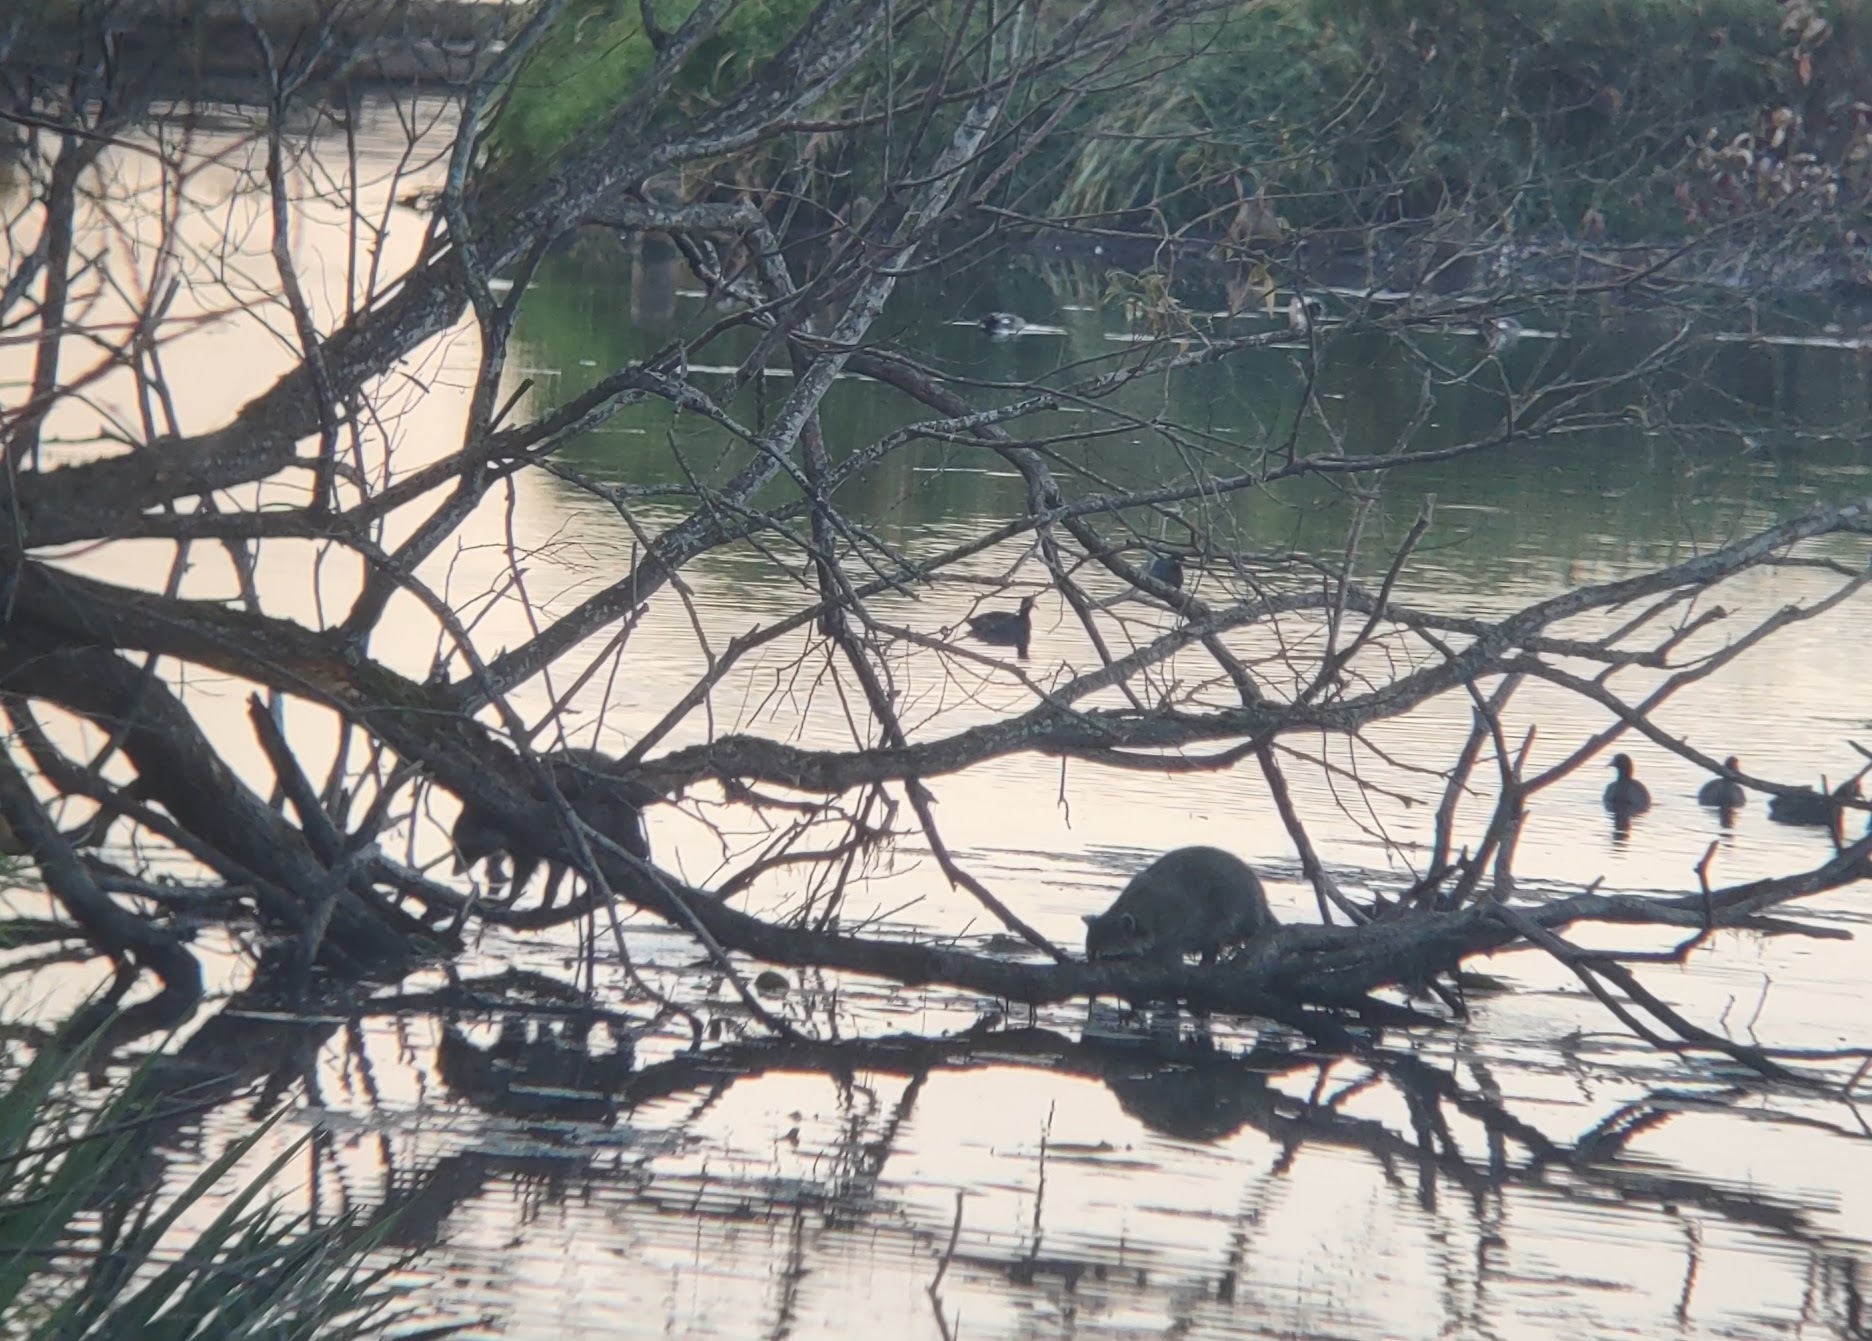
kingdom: Animalia
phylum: Chordata
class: Mammalia
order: Carnivora
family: Procyonidae
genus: Procyon
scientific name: Procyon lotor
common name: Raccoon
